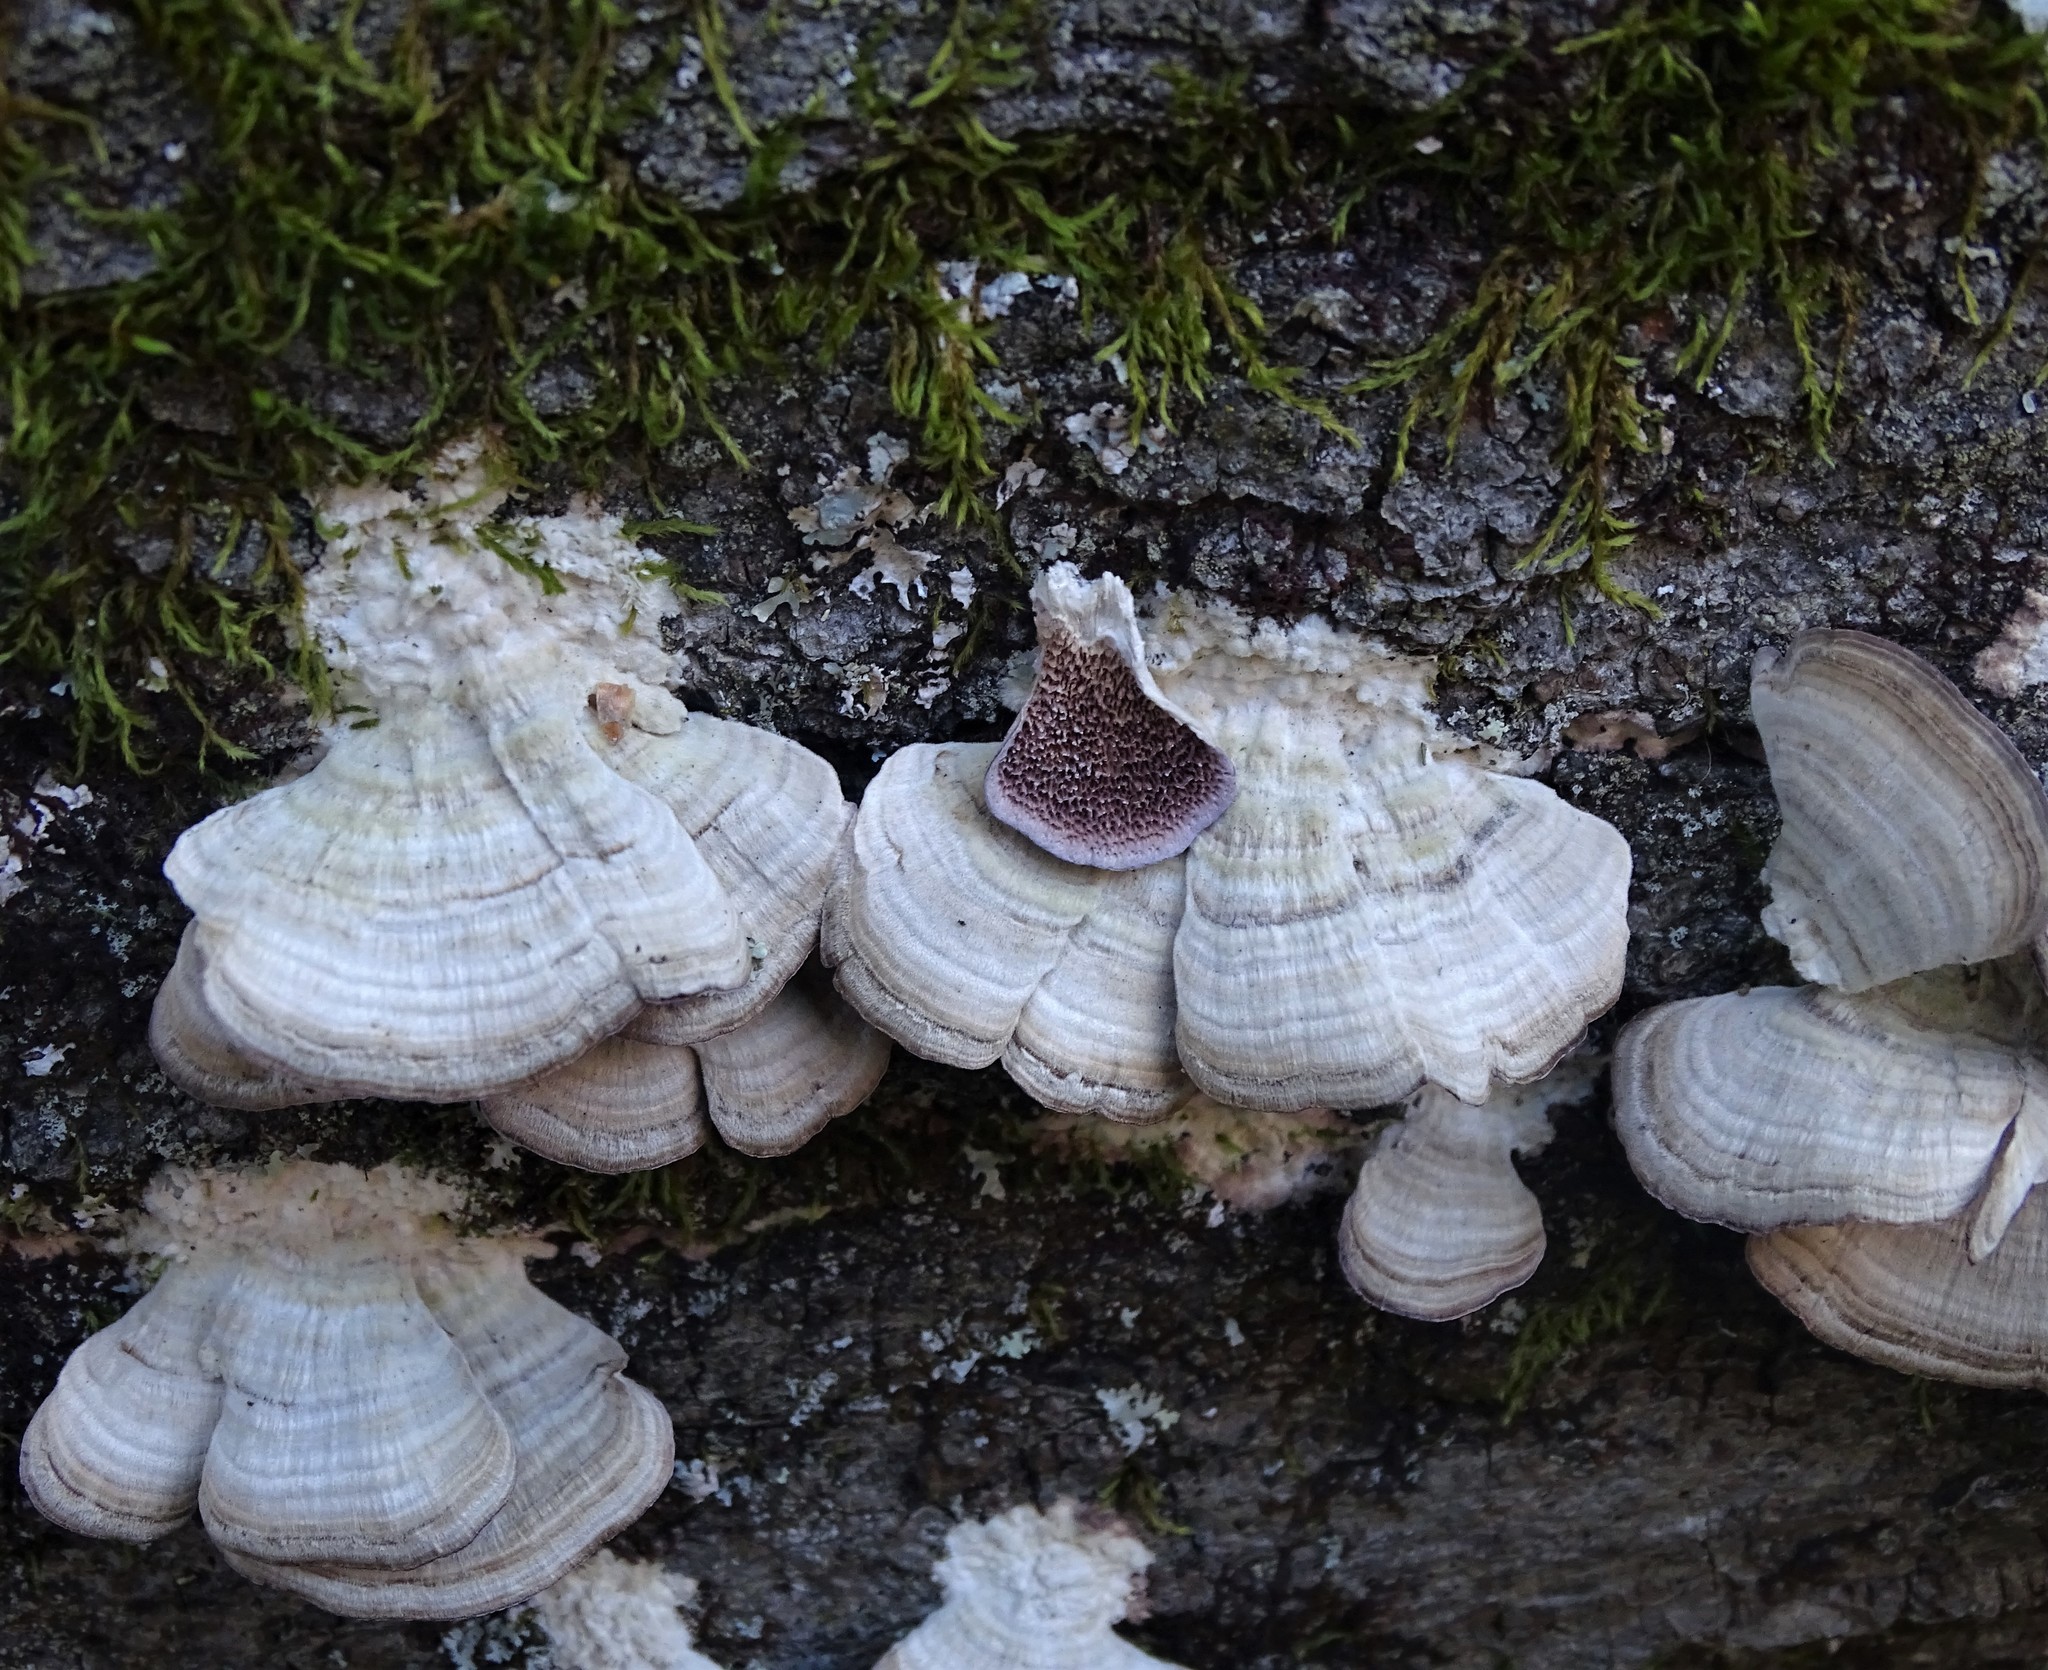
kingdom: Fungi
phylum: Basidiomycota
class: Agaricomycetes
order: Hymenochaetales
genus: Trichaptum
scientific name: Trichaptum biforme
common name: Violet-toothed polypore
